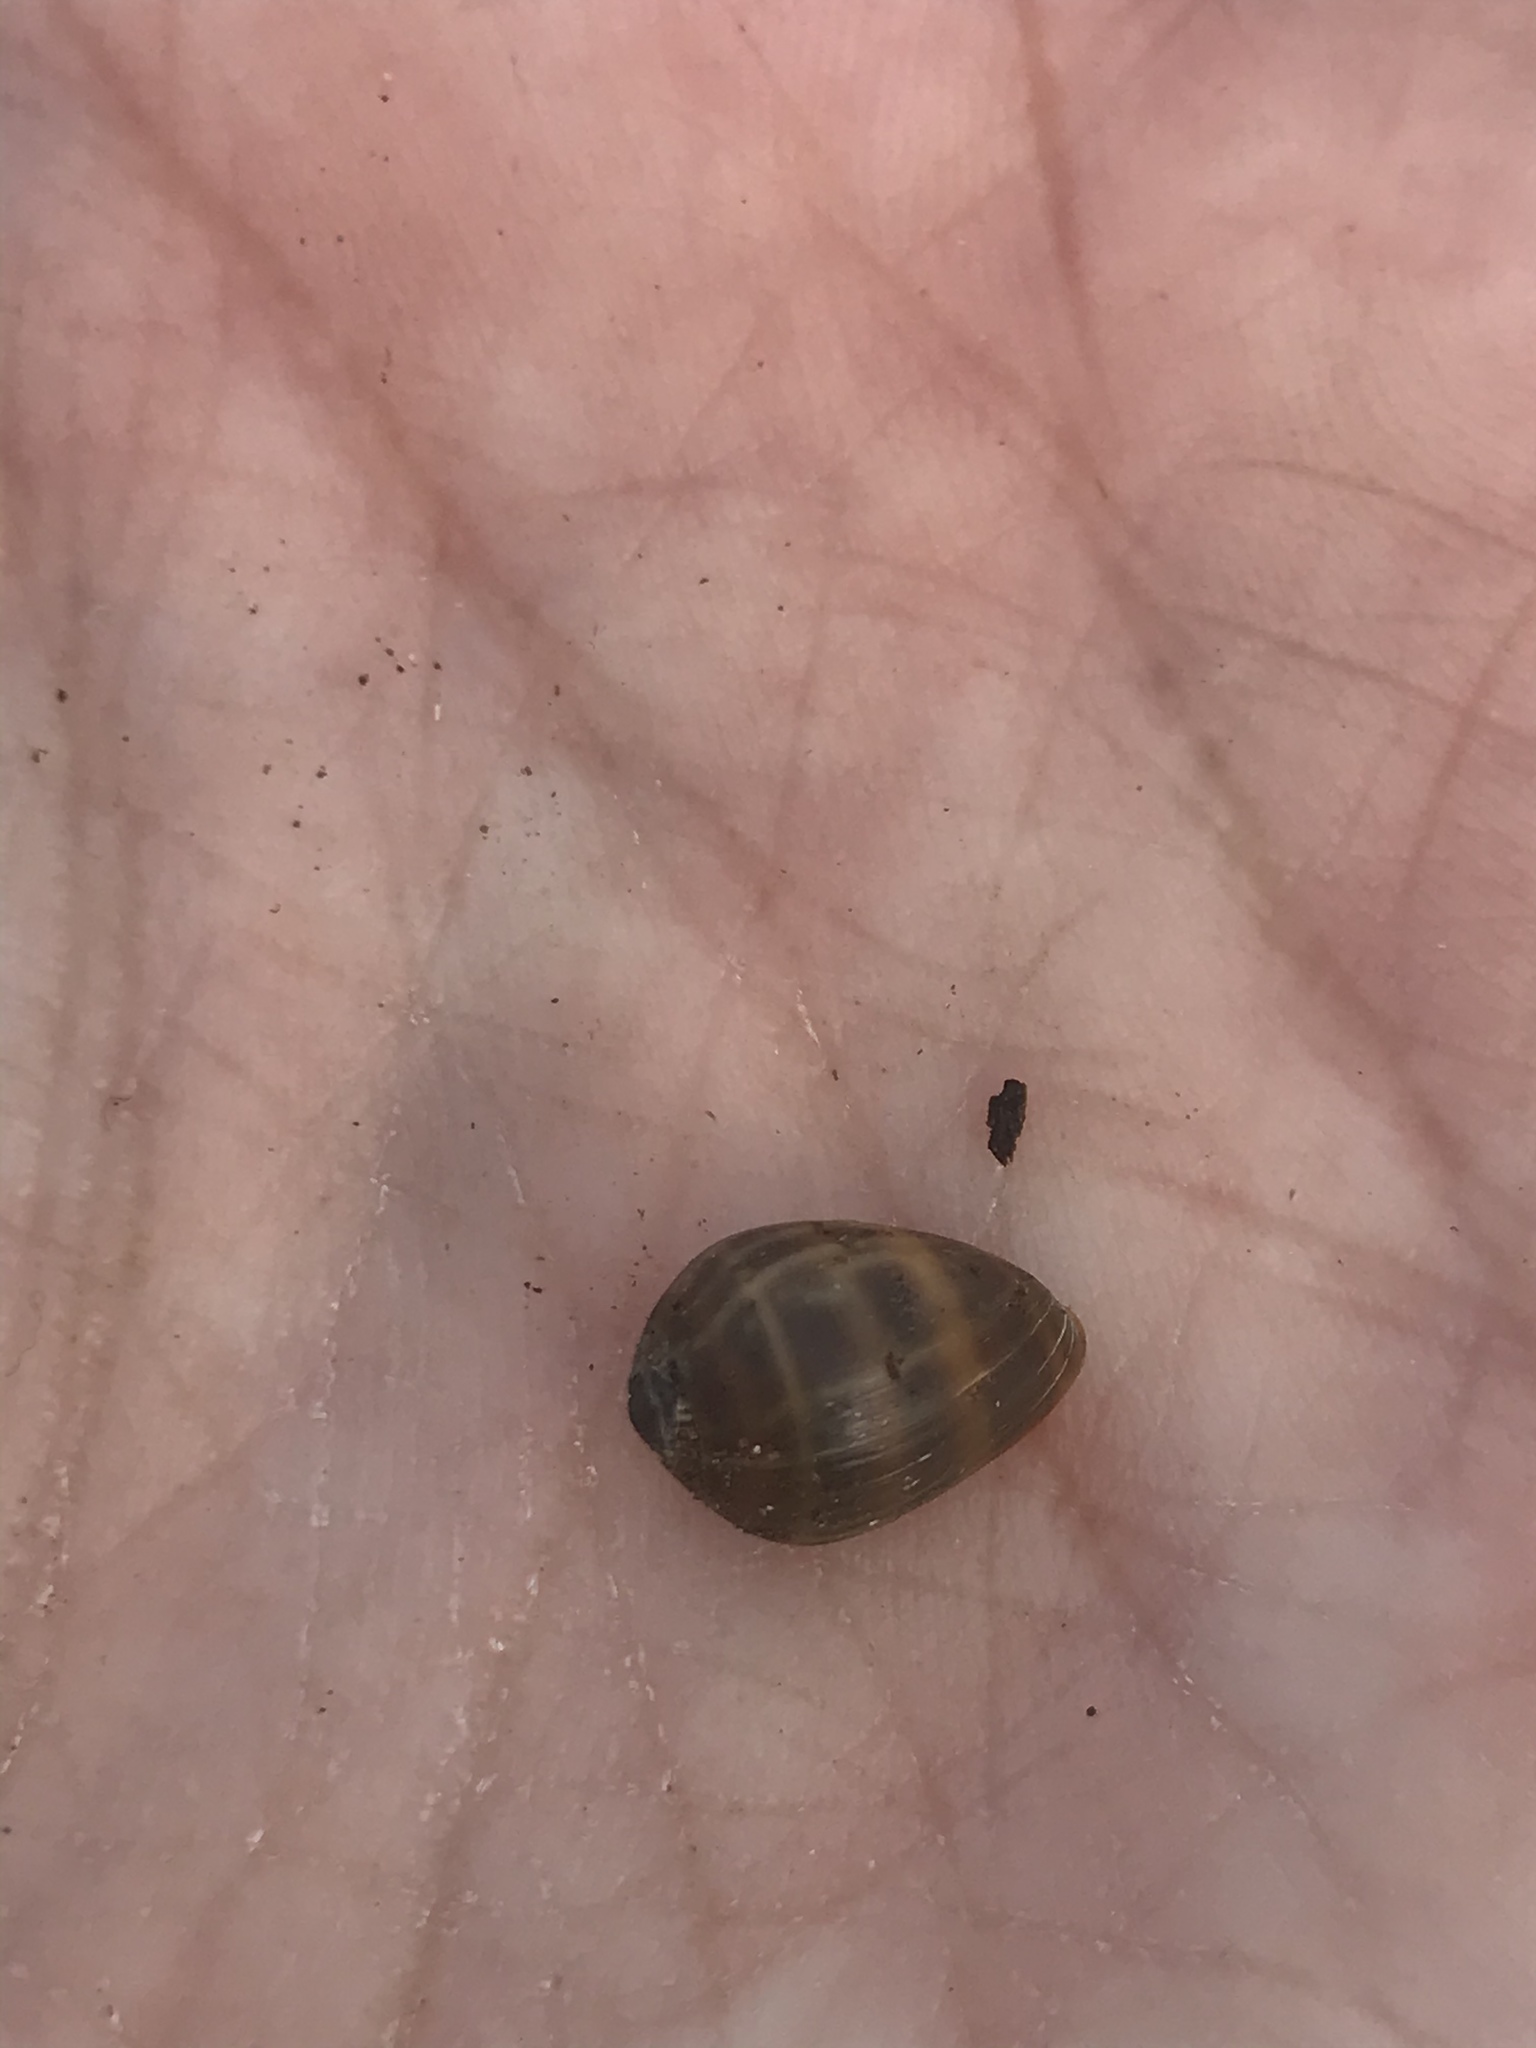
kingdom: Animalia
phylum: Mollusca
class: Gastropoda
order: Ellobiida
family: Ellobiidae
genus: Melampus
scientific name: Melampus olivaceus
